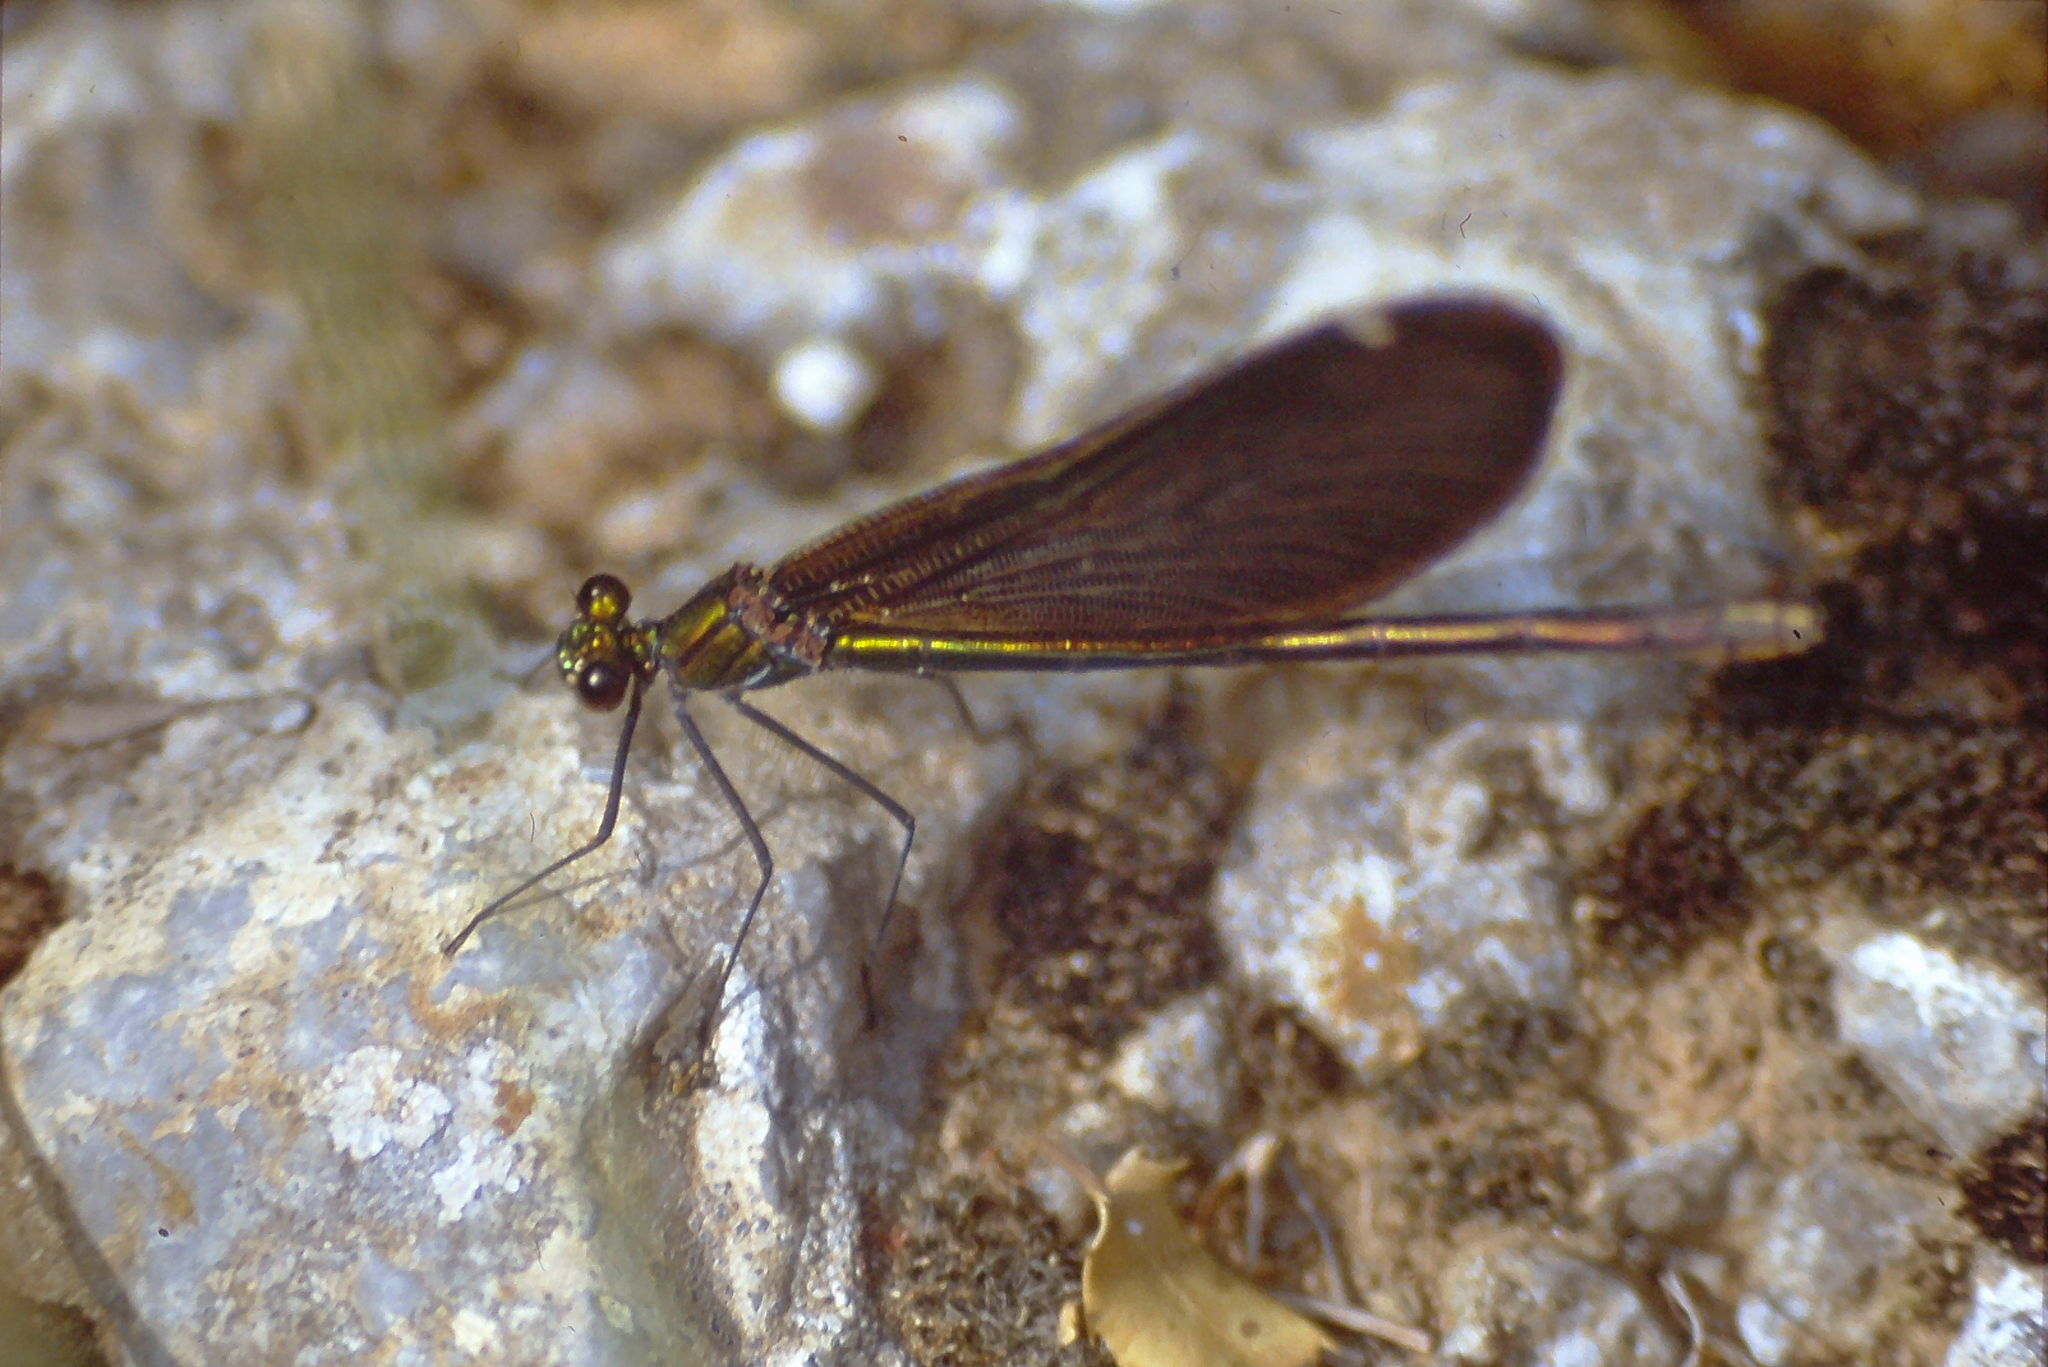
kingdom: Animalia
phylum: Arthropoda
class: Insecta
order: Odonata
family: Calopterygidae
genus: Calopteryx
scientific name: Calopteryx virgo
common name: Beautiful demoiselle
